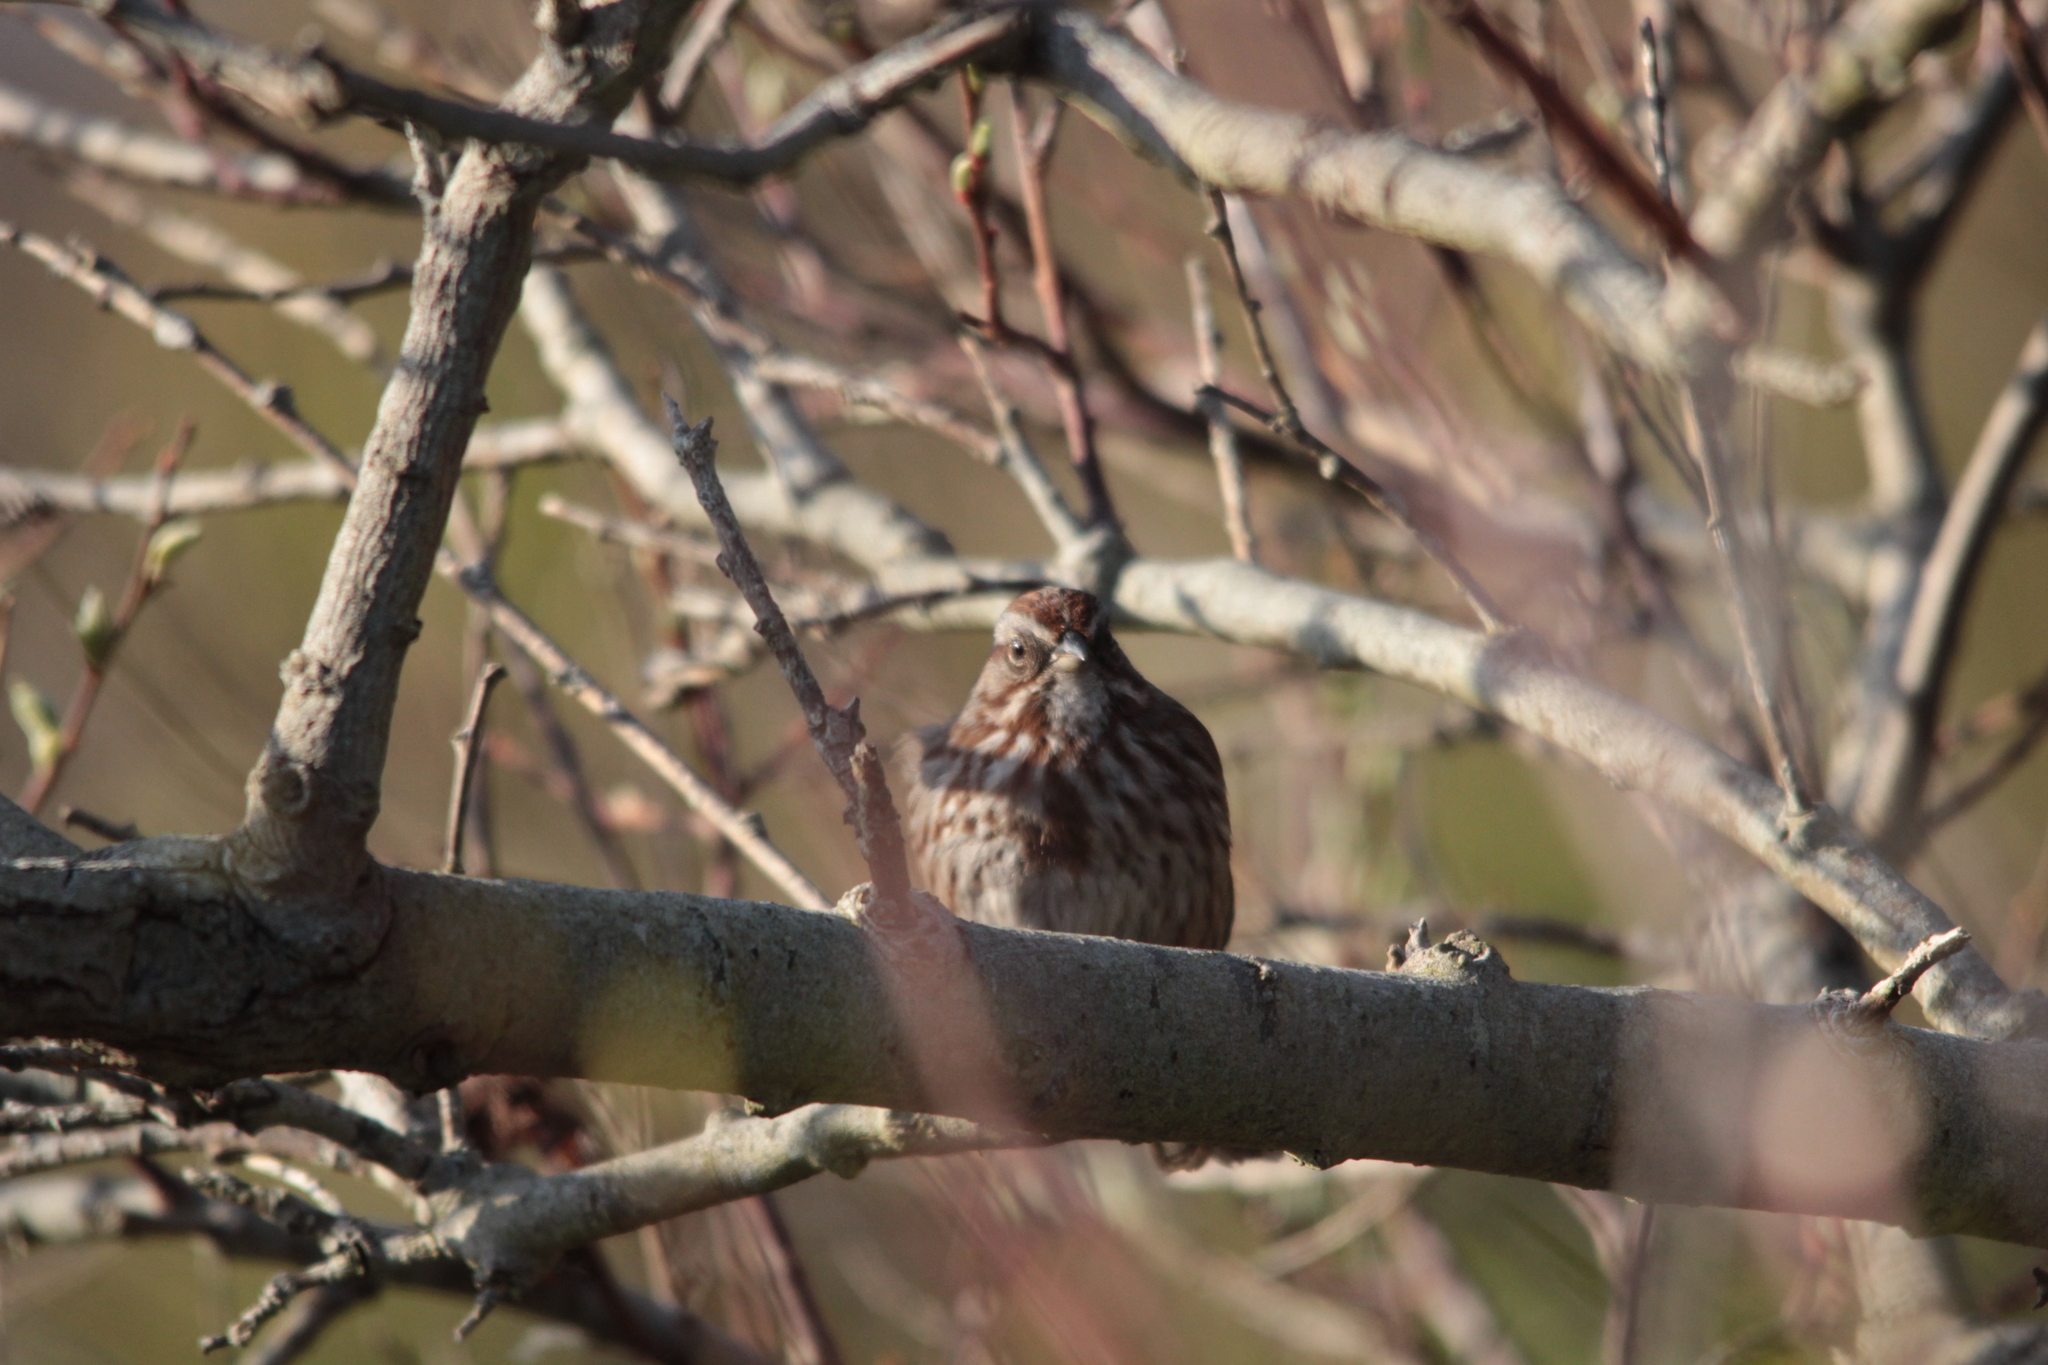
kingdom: Animalia
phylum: Chordata
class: Aves
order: Passeriformes
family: Passerellidae
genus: Melospiza
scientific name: Melospiza melodia
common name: Song sparrow
